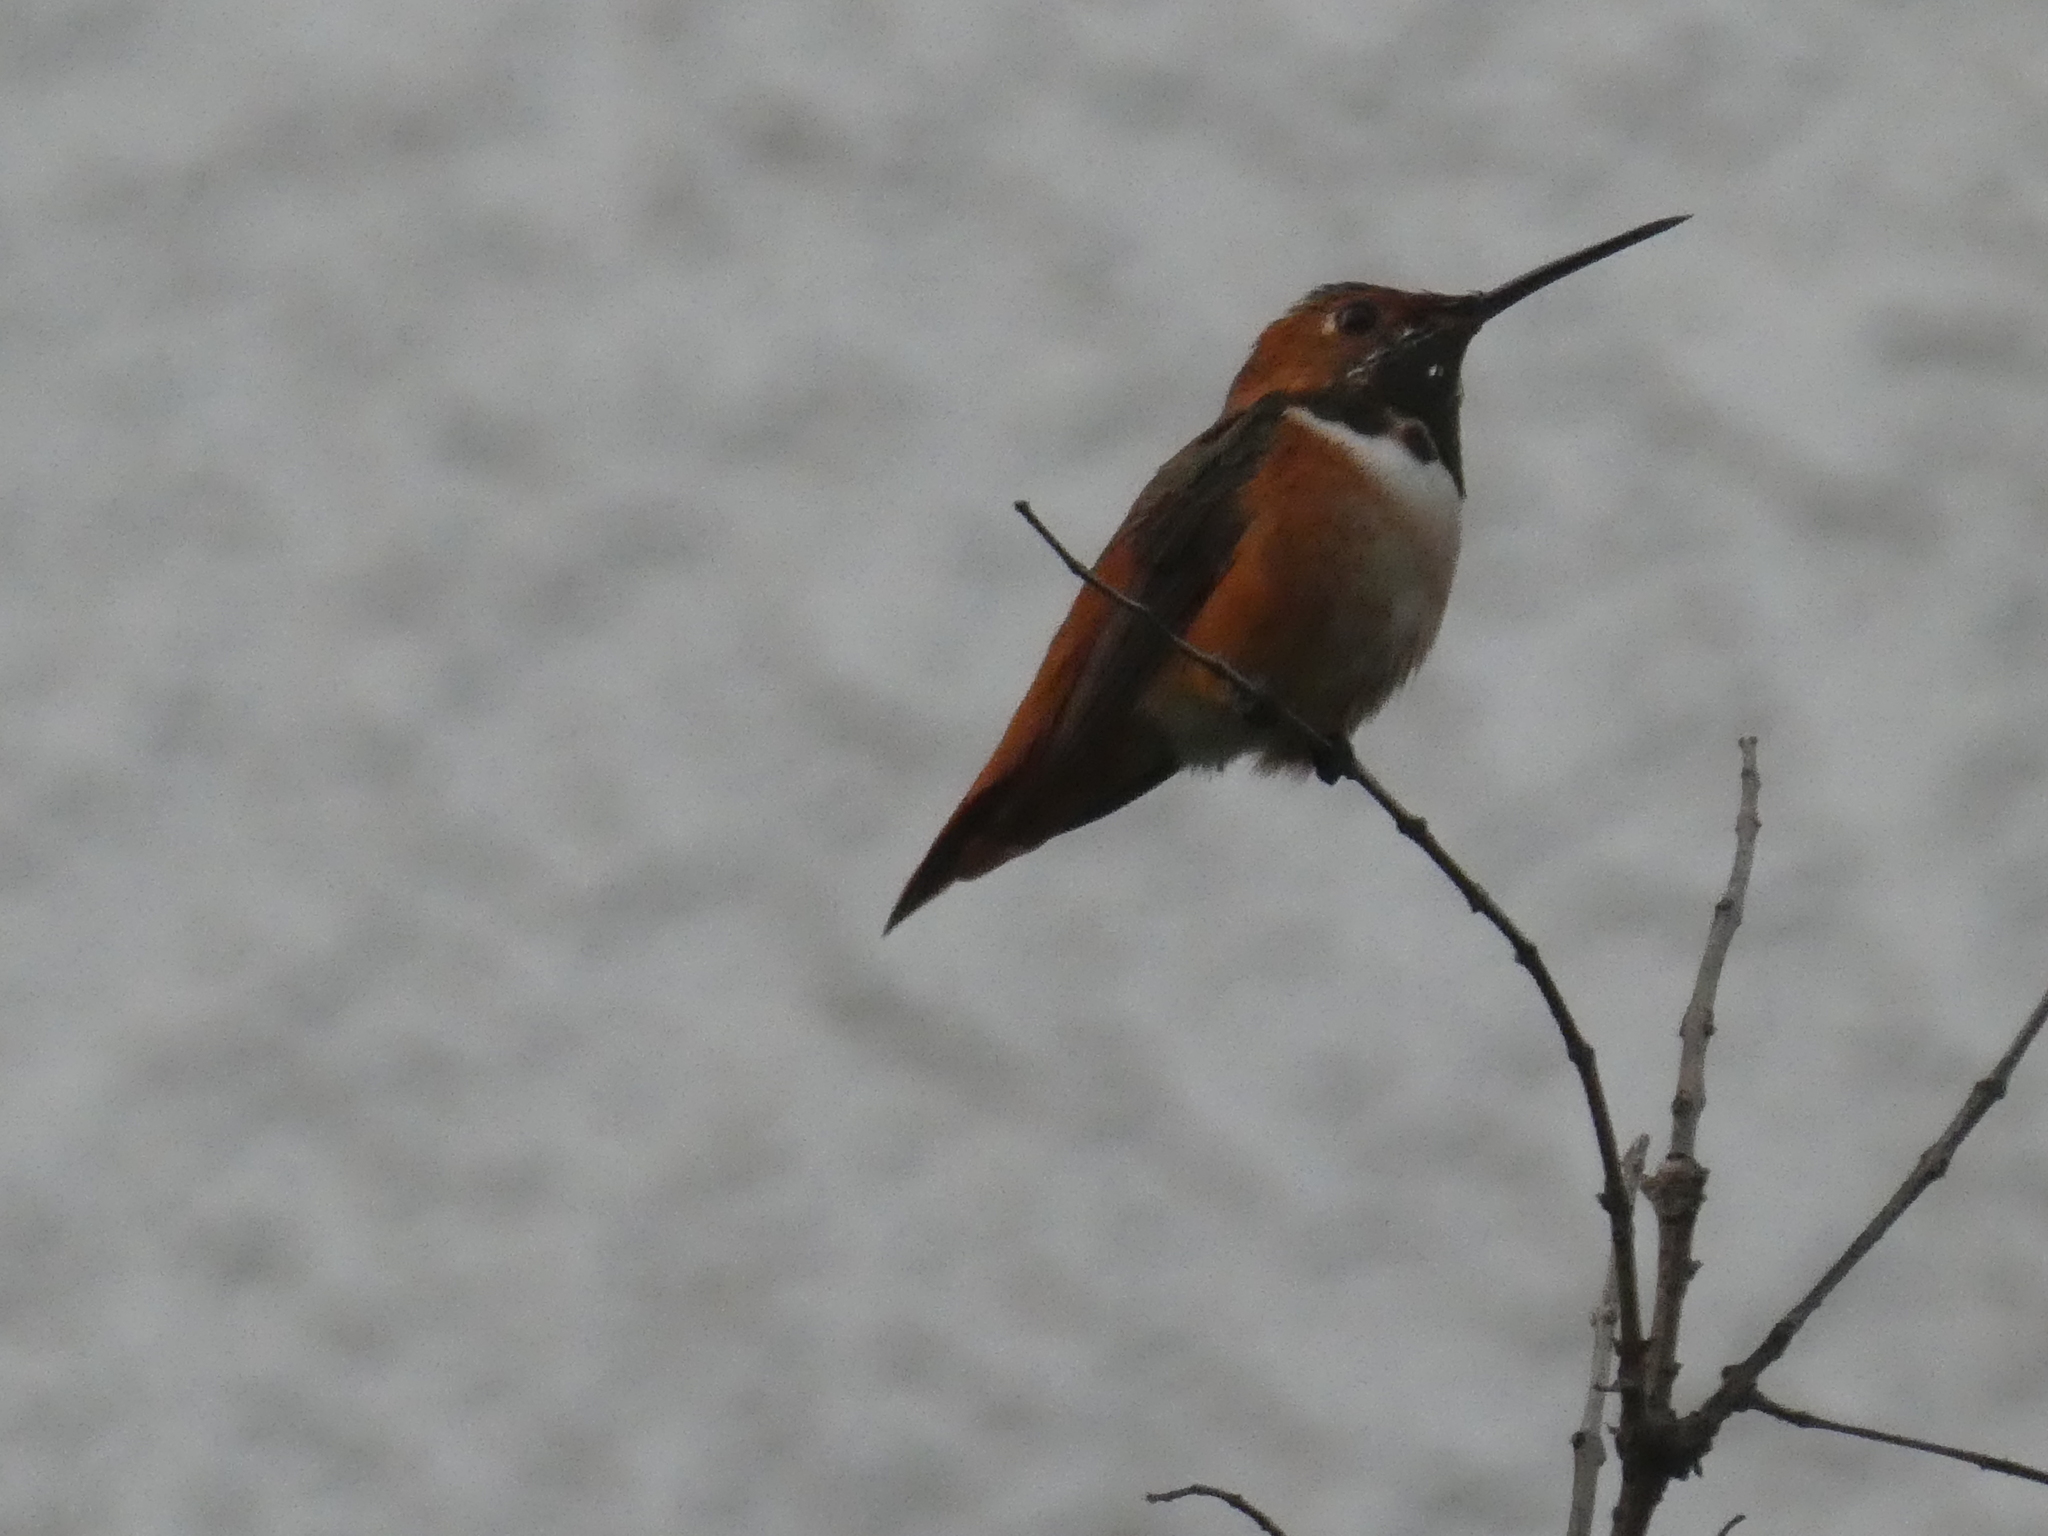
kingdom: Animalia
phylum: Chordata
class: Aves
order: Apodiformes
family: Trochilidae
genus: Selasphorus
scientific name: Selasphorus sasin
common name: Allen's hummingbird
